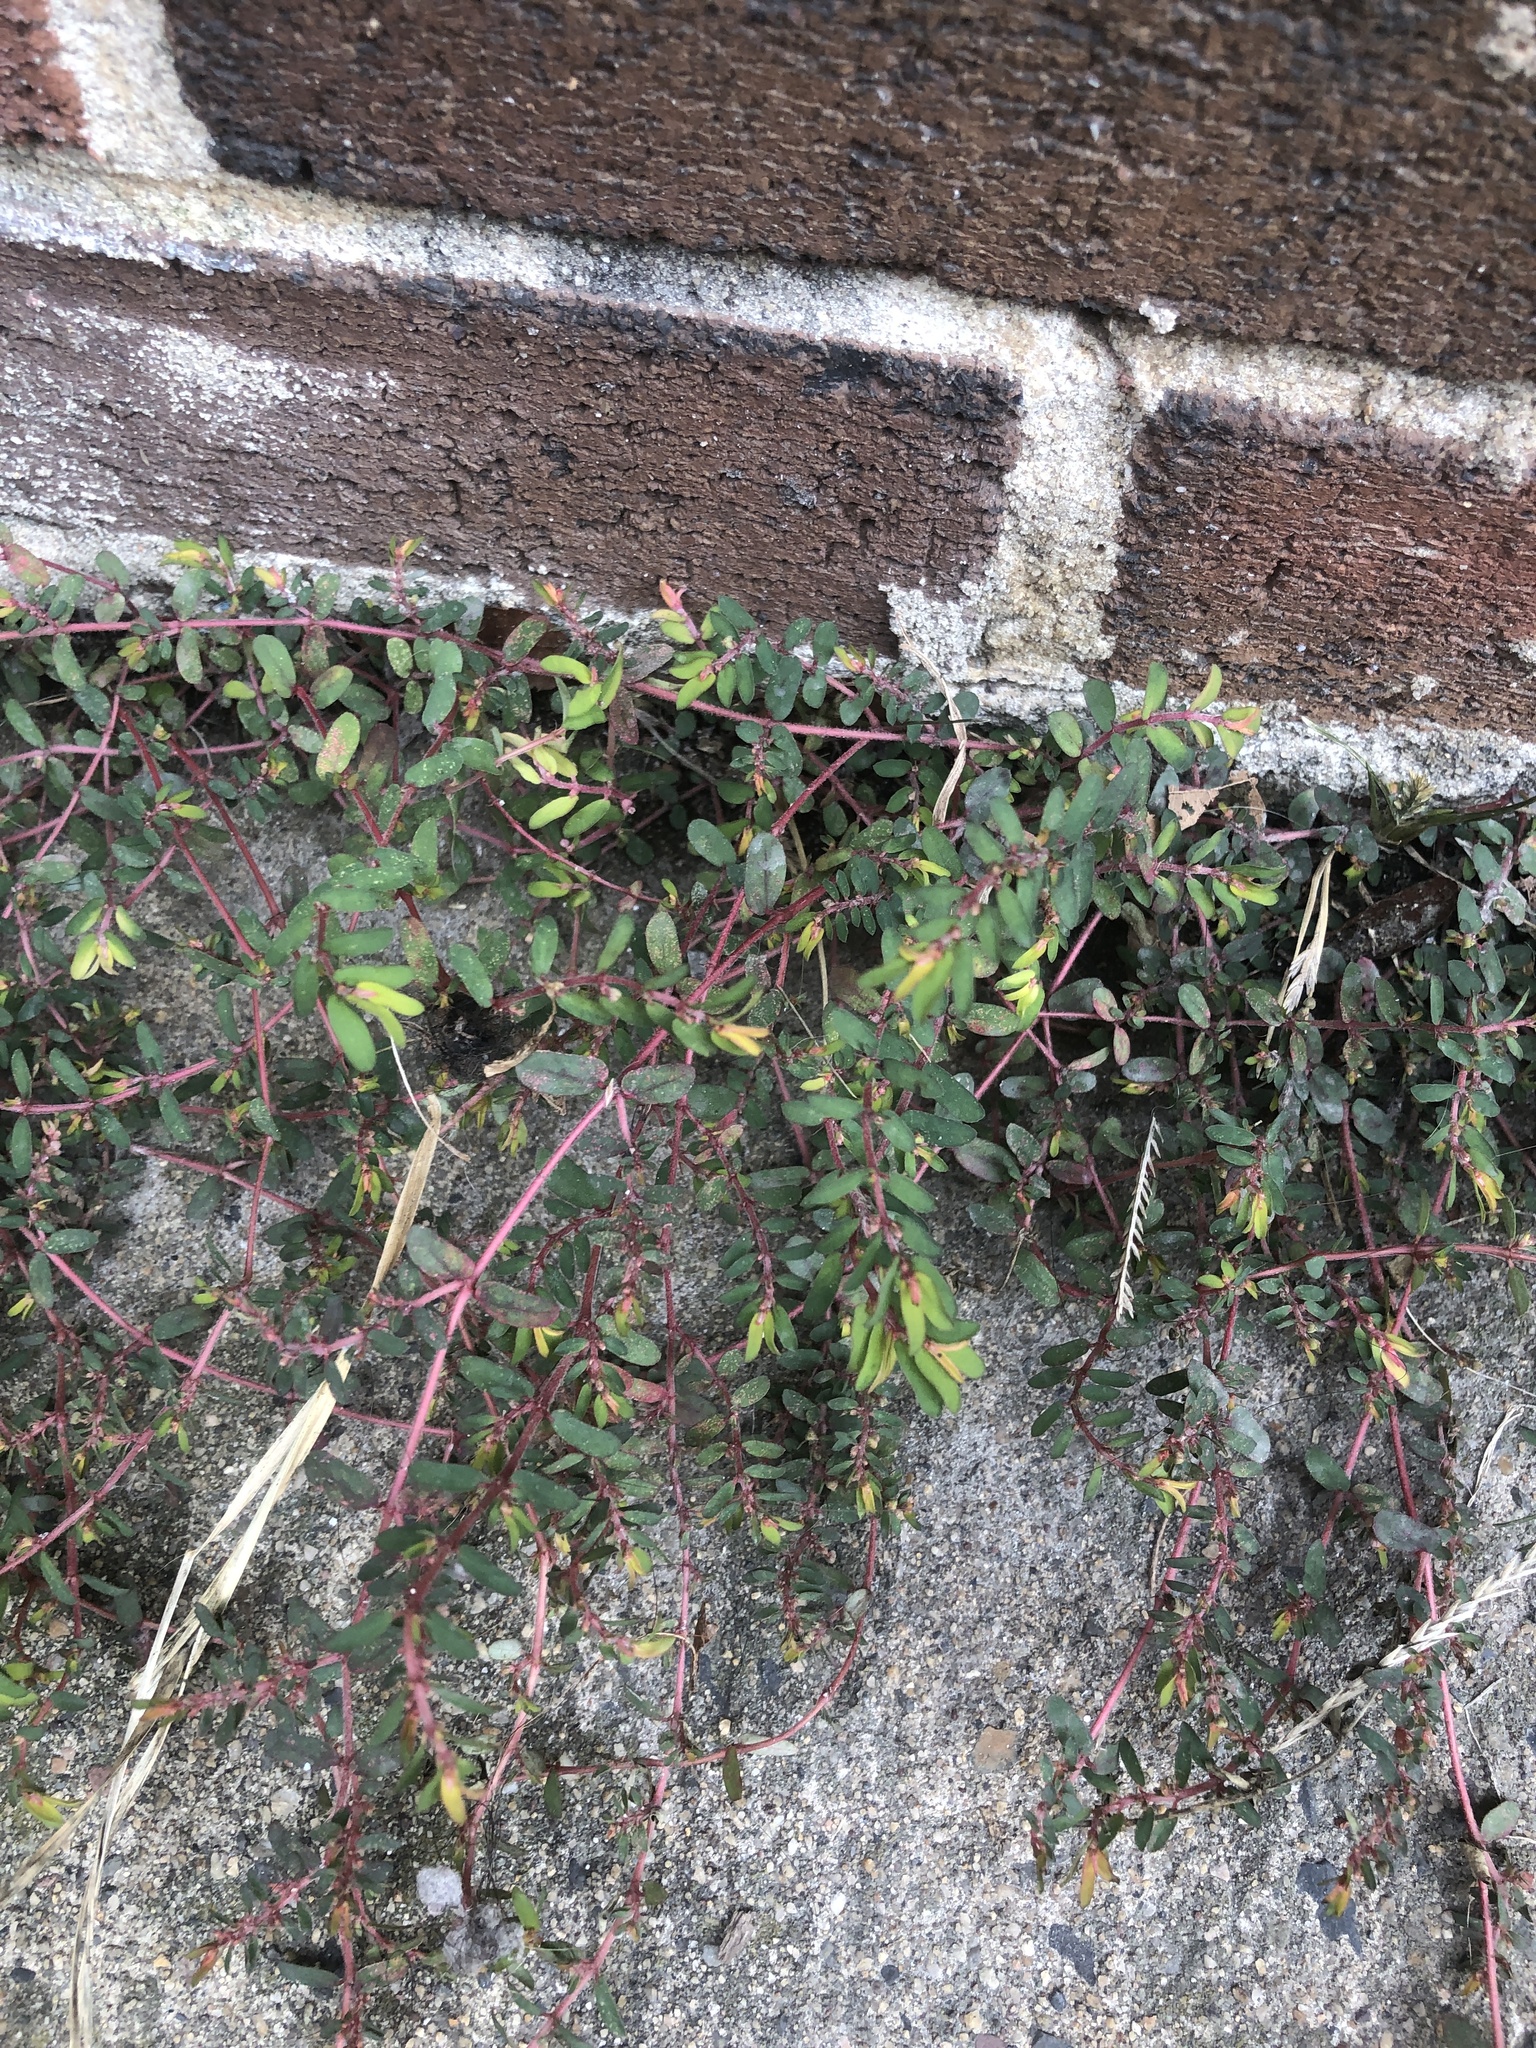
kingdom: Plantae
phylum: Tracheophyta
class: Magnoliopsida
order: Malpighiales
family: Euphorbiaceae
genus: Euphorbia
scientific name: Euphorbia maculata
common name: Spotted spurge
